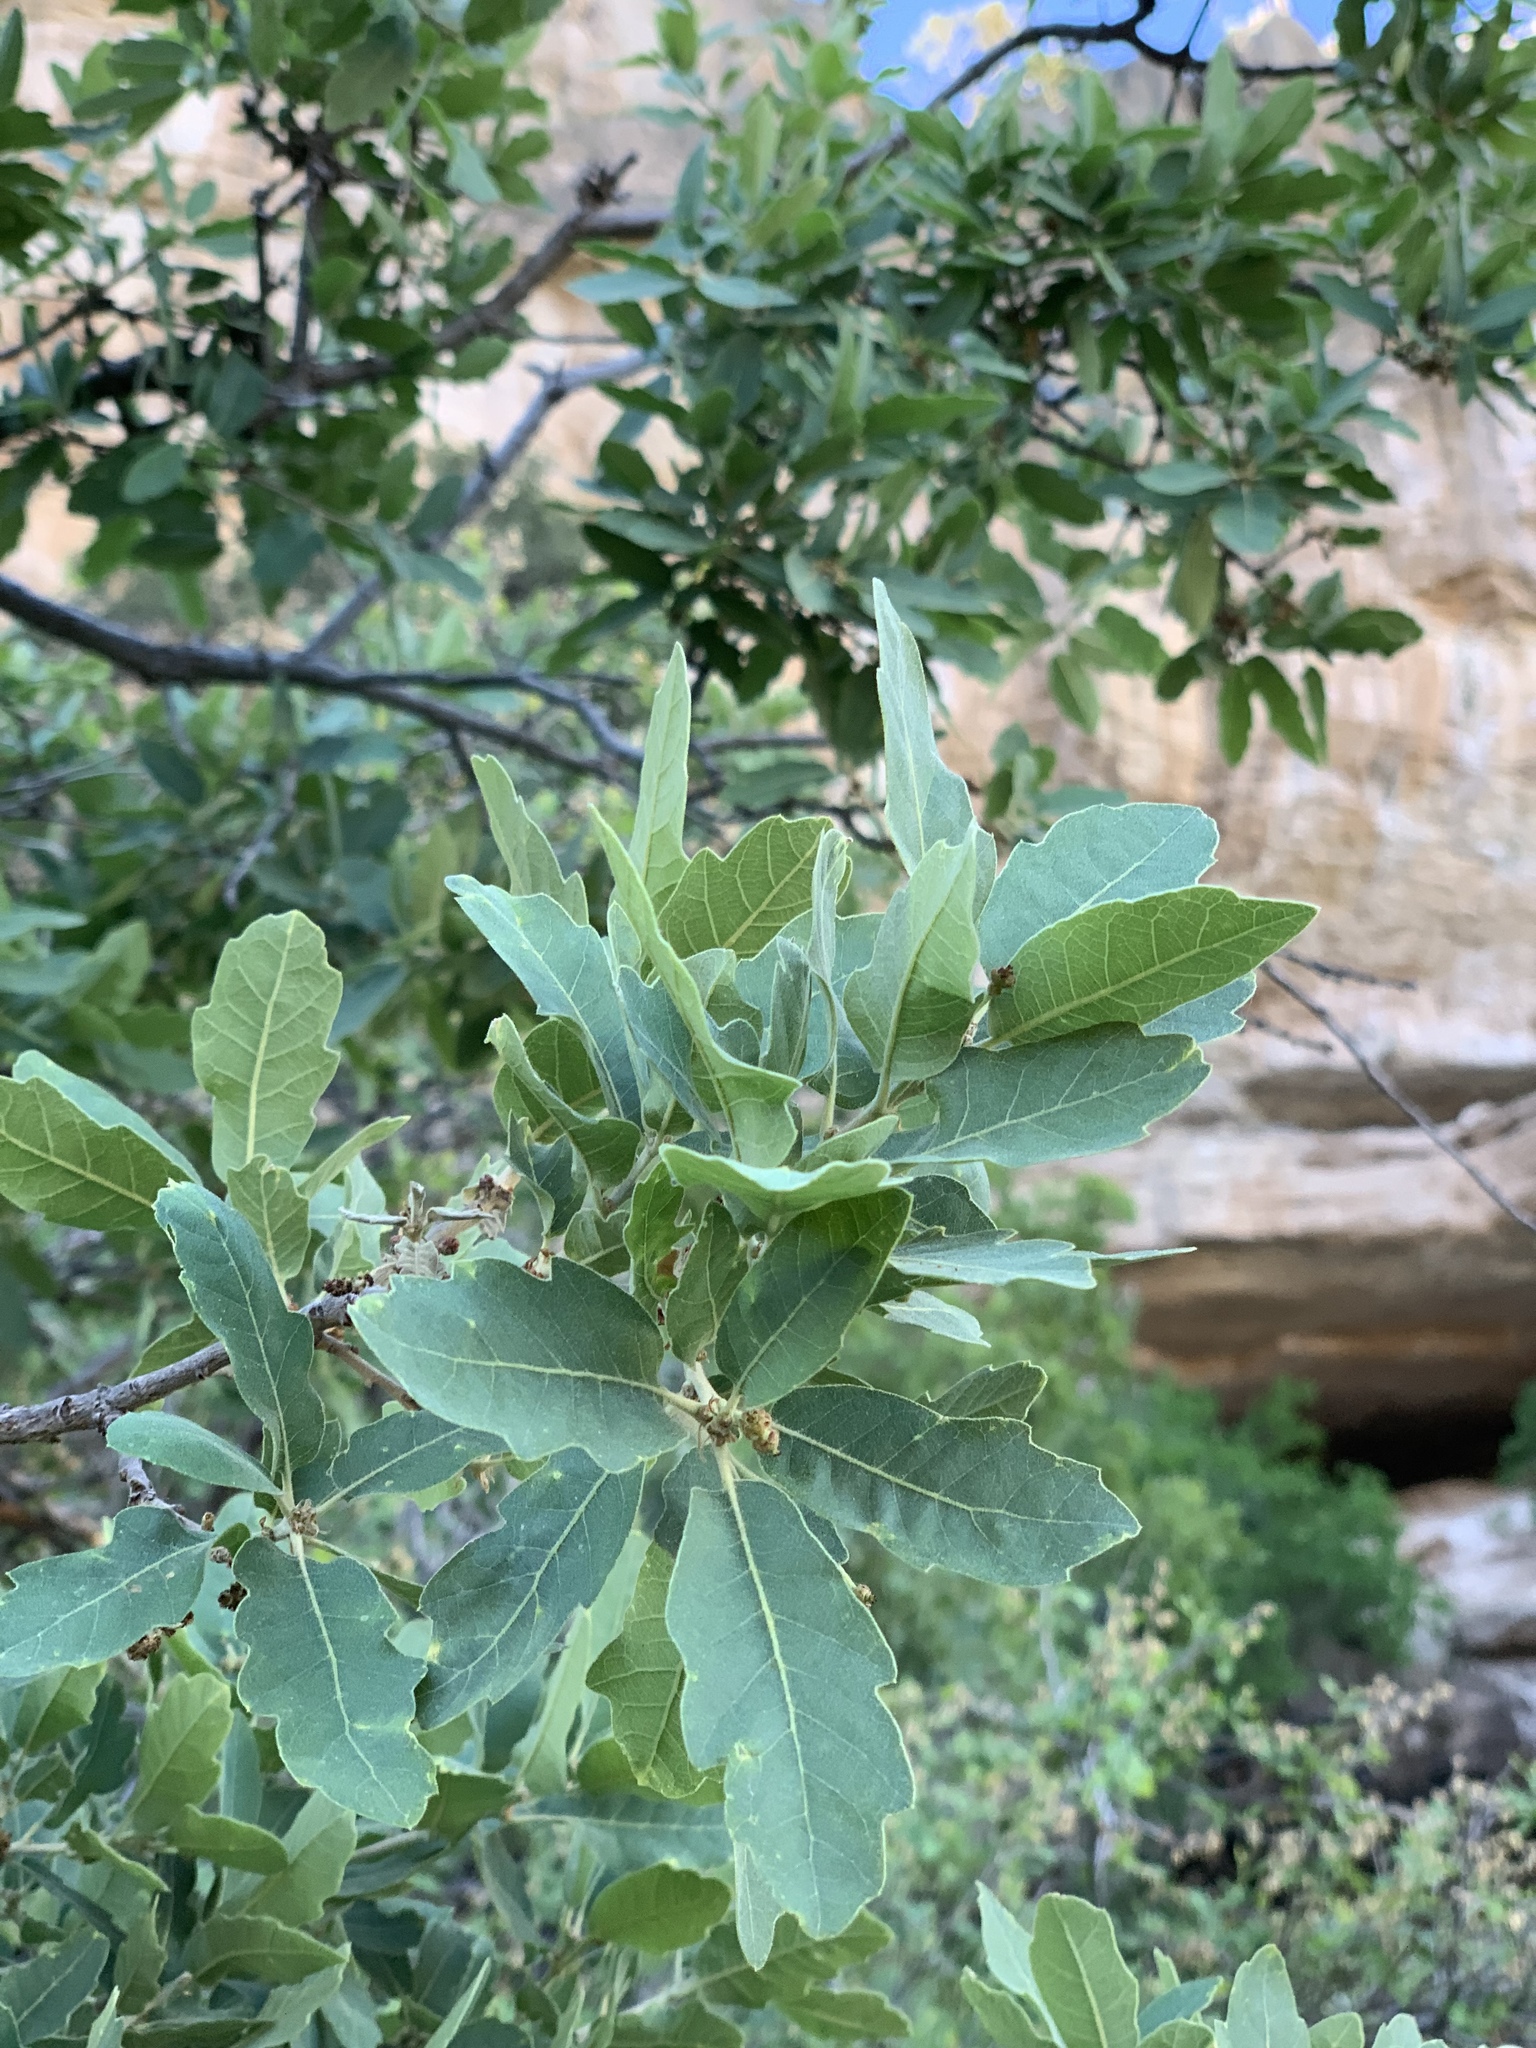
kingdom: Plantae
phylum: Tracheophyta
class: Magnoliopsida
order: Fagales
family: Fagaceae
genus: Quercus
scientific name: Quercus undulata
